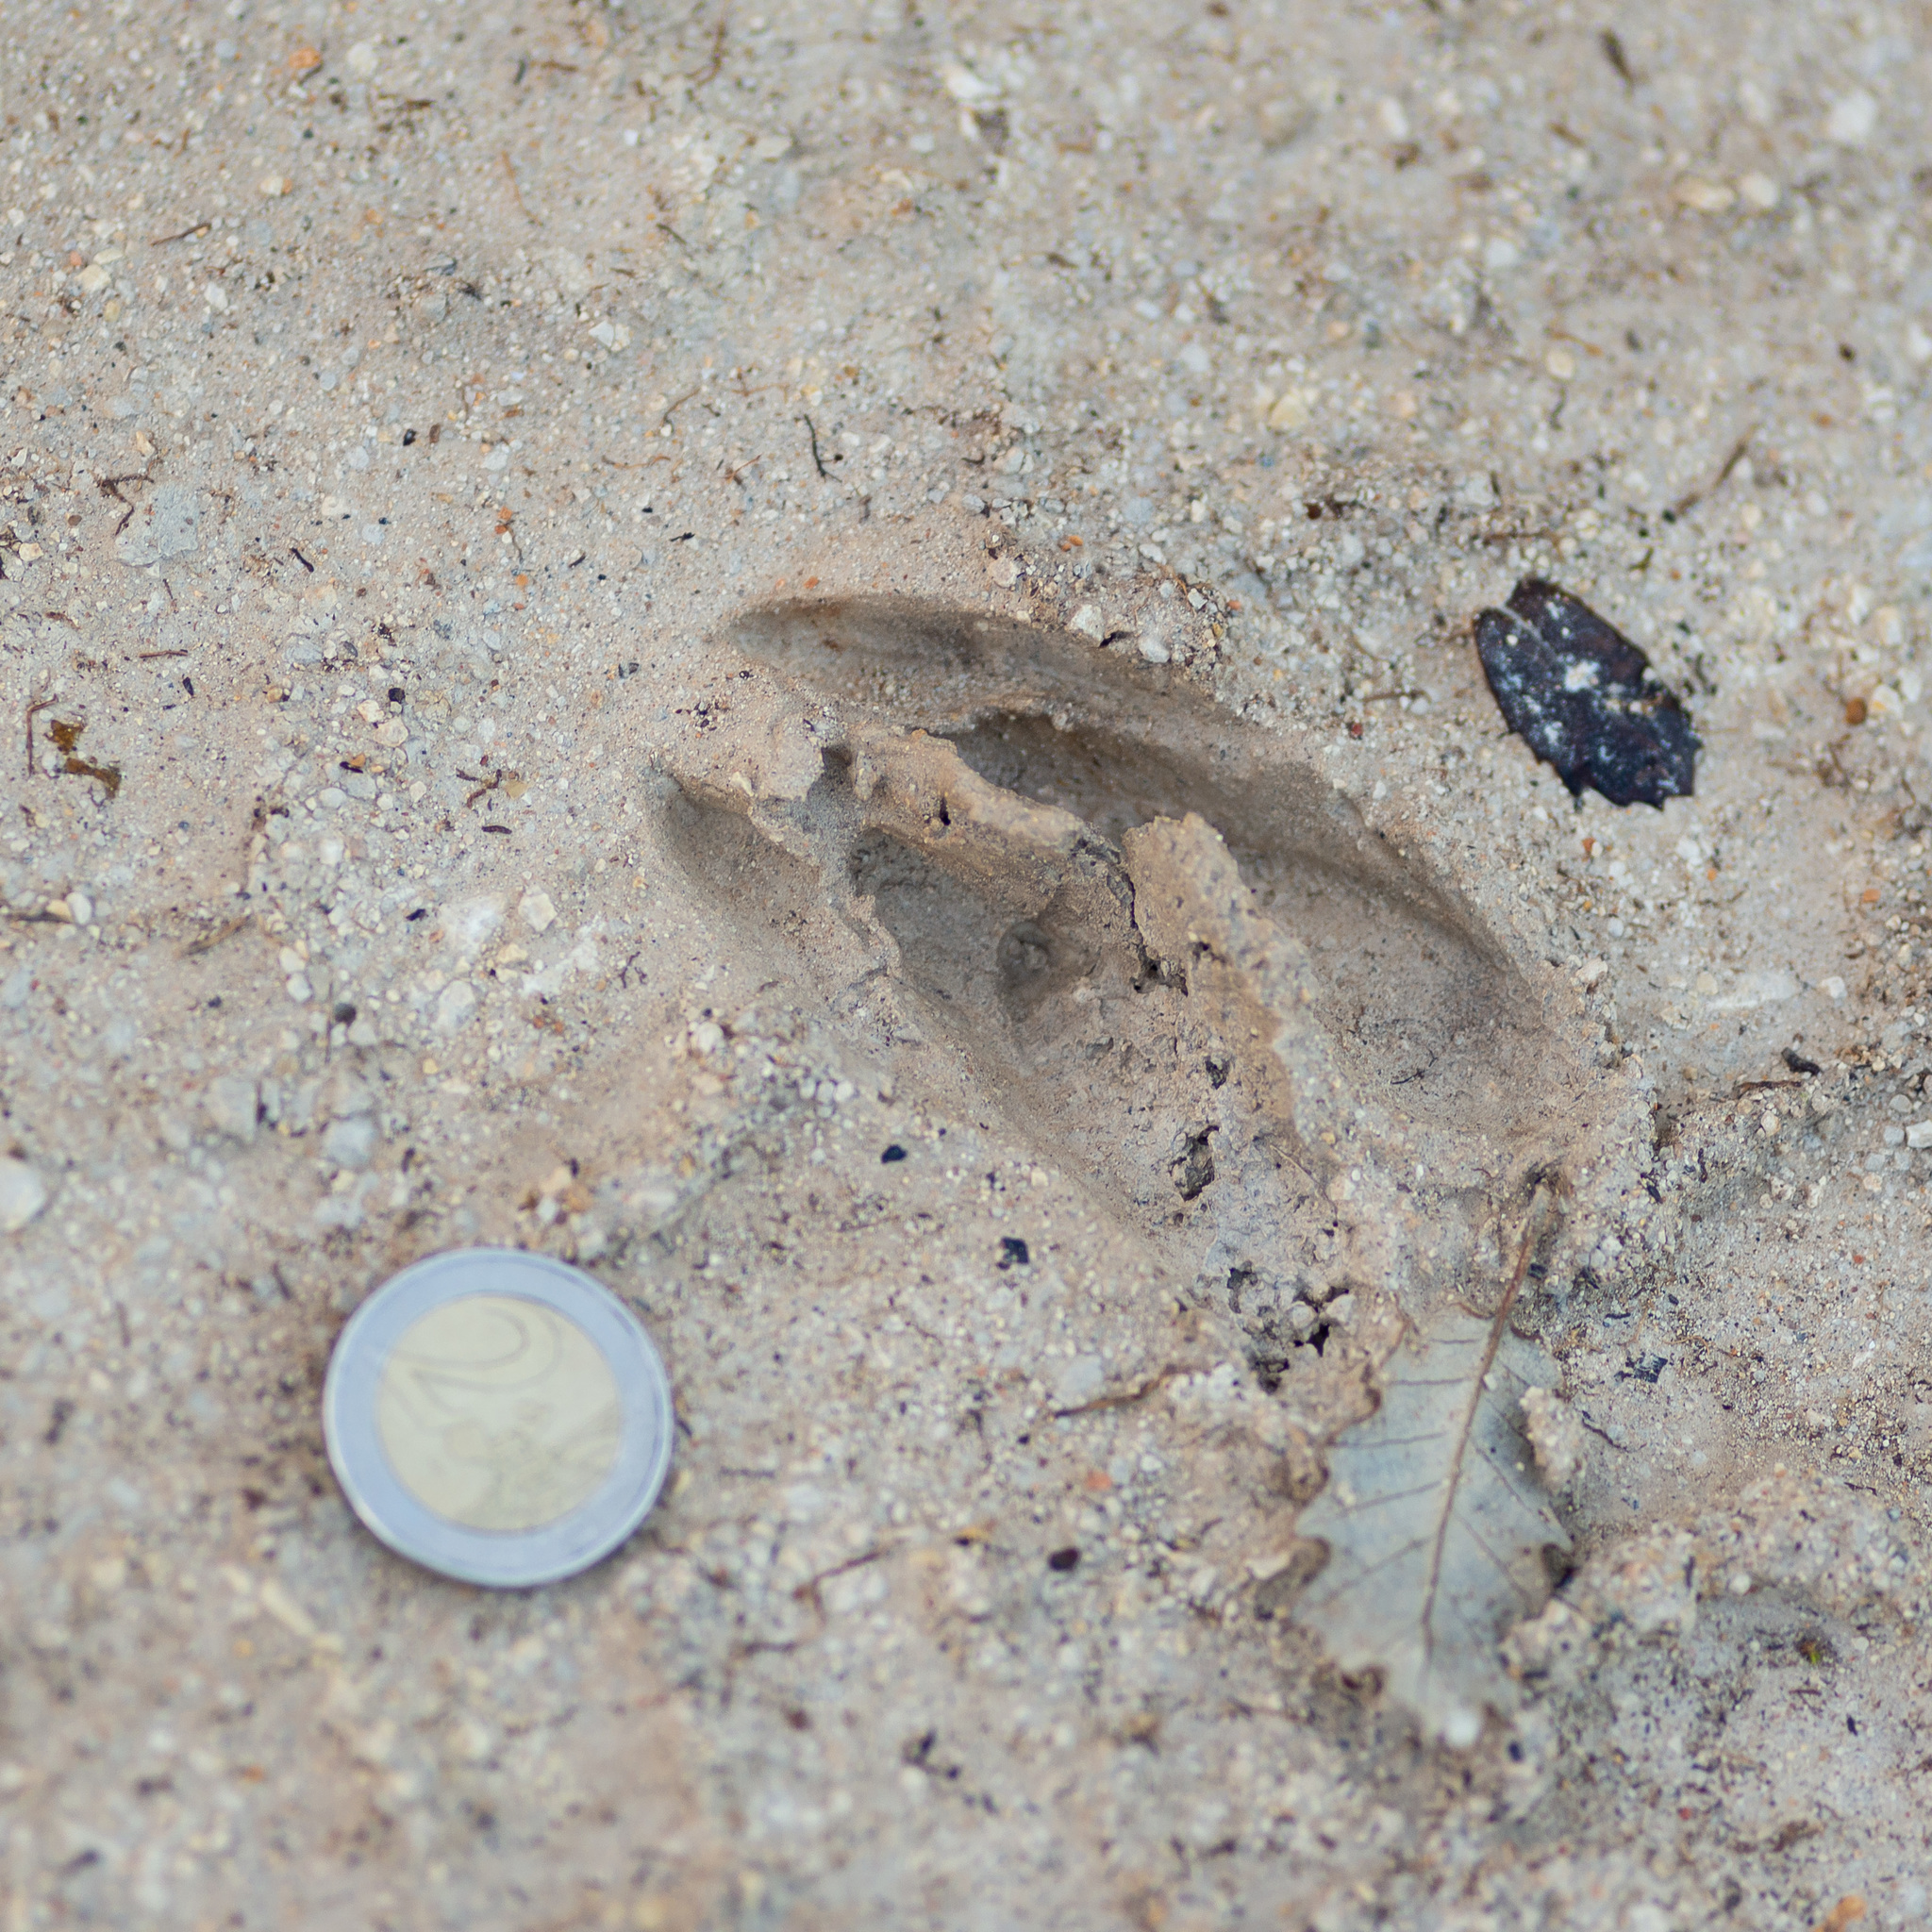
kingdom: Animalia
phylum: Chordata
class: Mammalia
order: Artiodactyla
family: Cervidae
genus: Capreolus
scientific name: Capreolus capreolus
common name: Western roe deer
